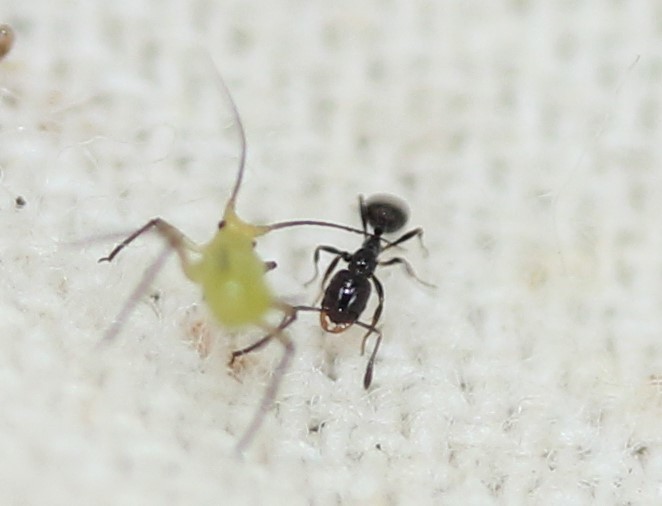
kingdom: Animalia
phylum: Arthropoda
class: Insecta
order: Hymenoptera
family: Formicidae
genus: Temnothorax
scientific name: Temnothorax pergandei
